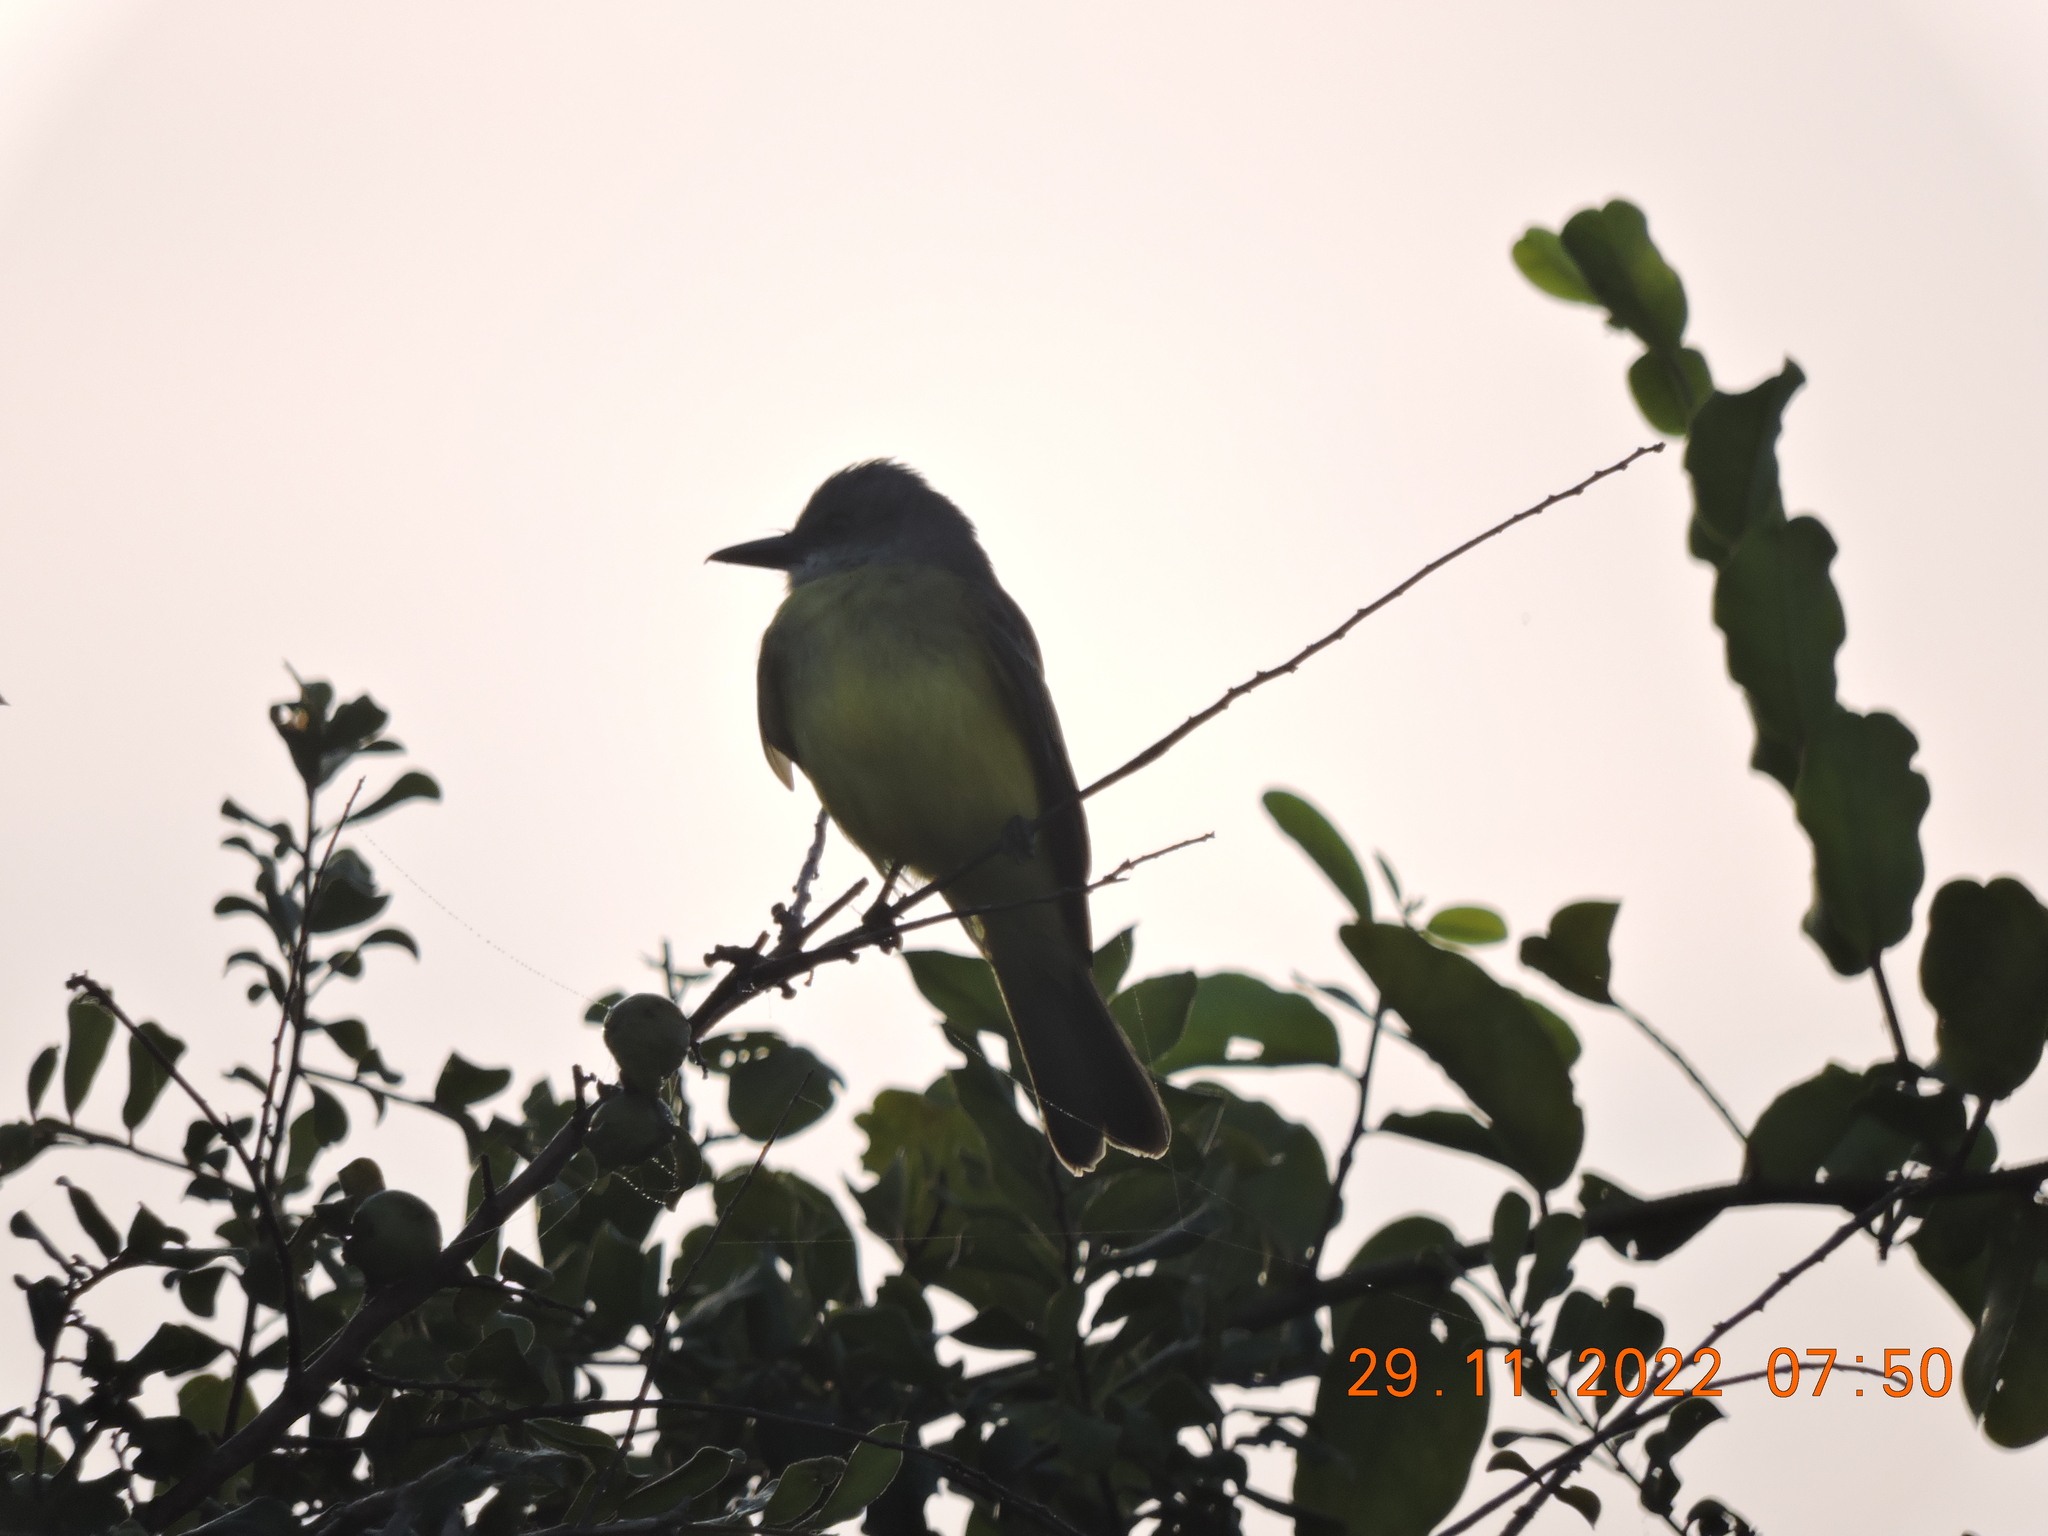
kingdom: Animalia
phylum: Chordata
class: Aves
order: Passeriformes
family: Tyrannidae
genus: Tyrannus
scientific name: Tyrannus melancholicus
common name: Tropical kingbird
